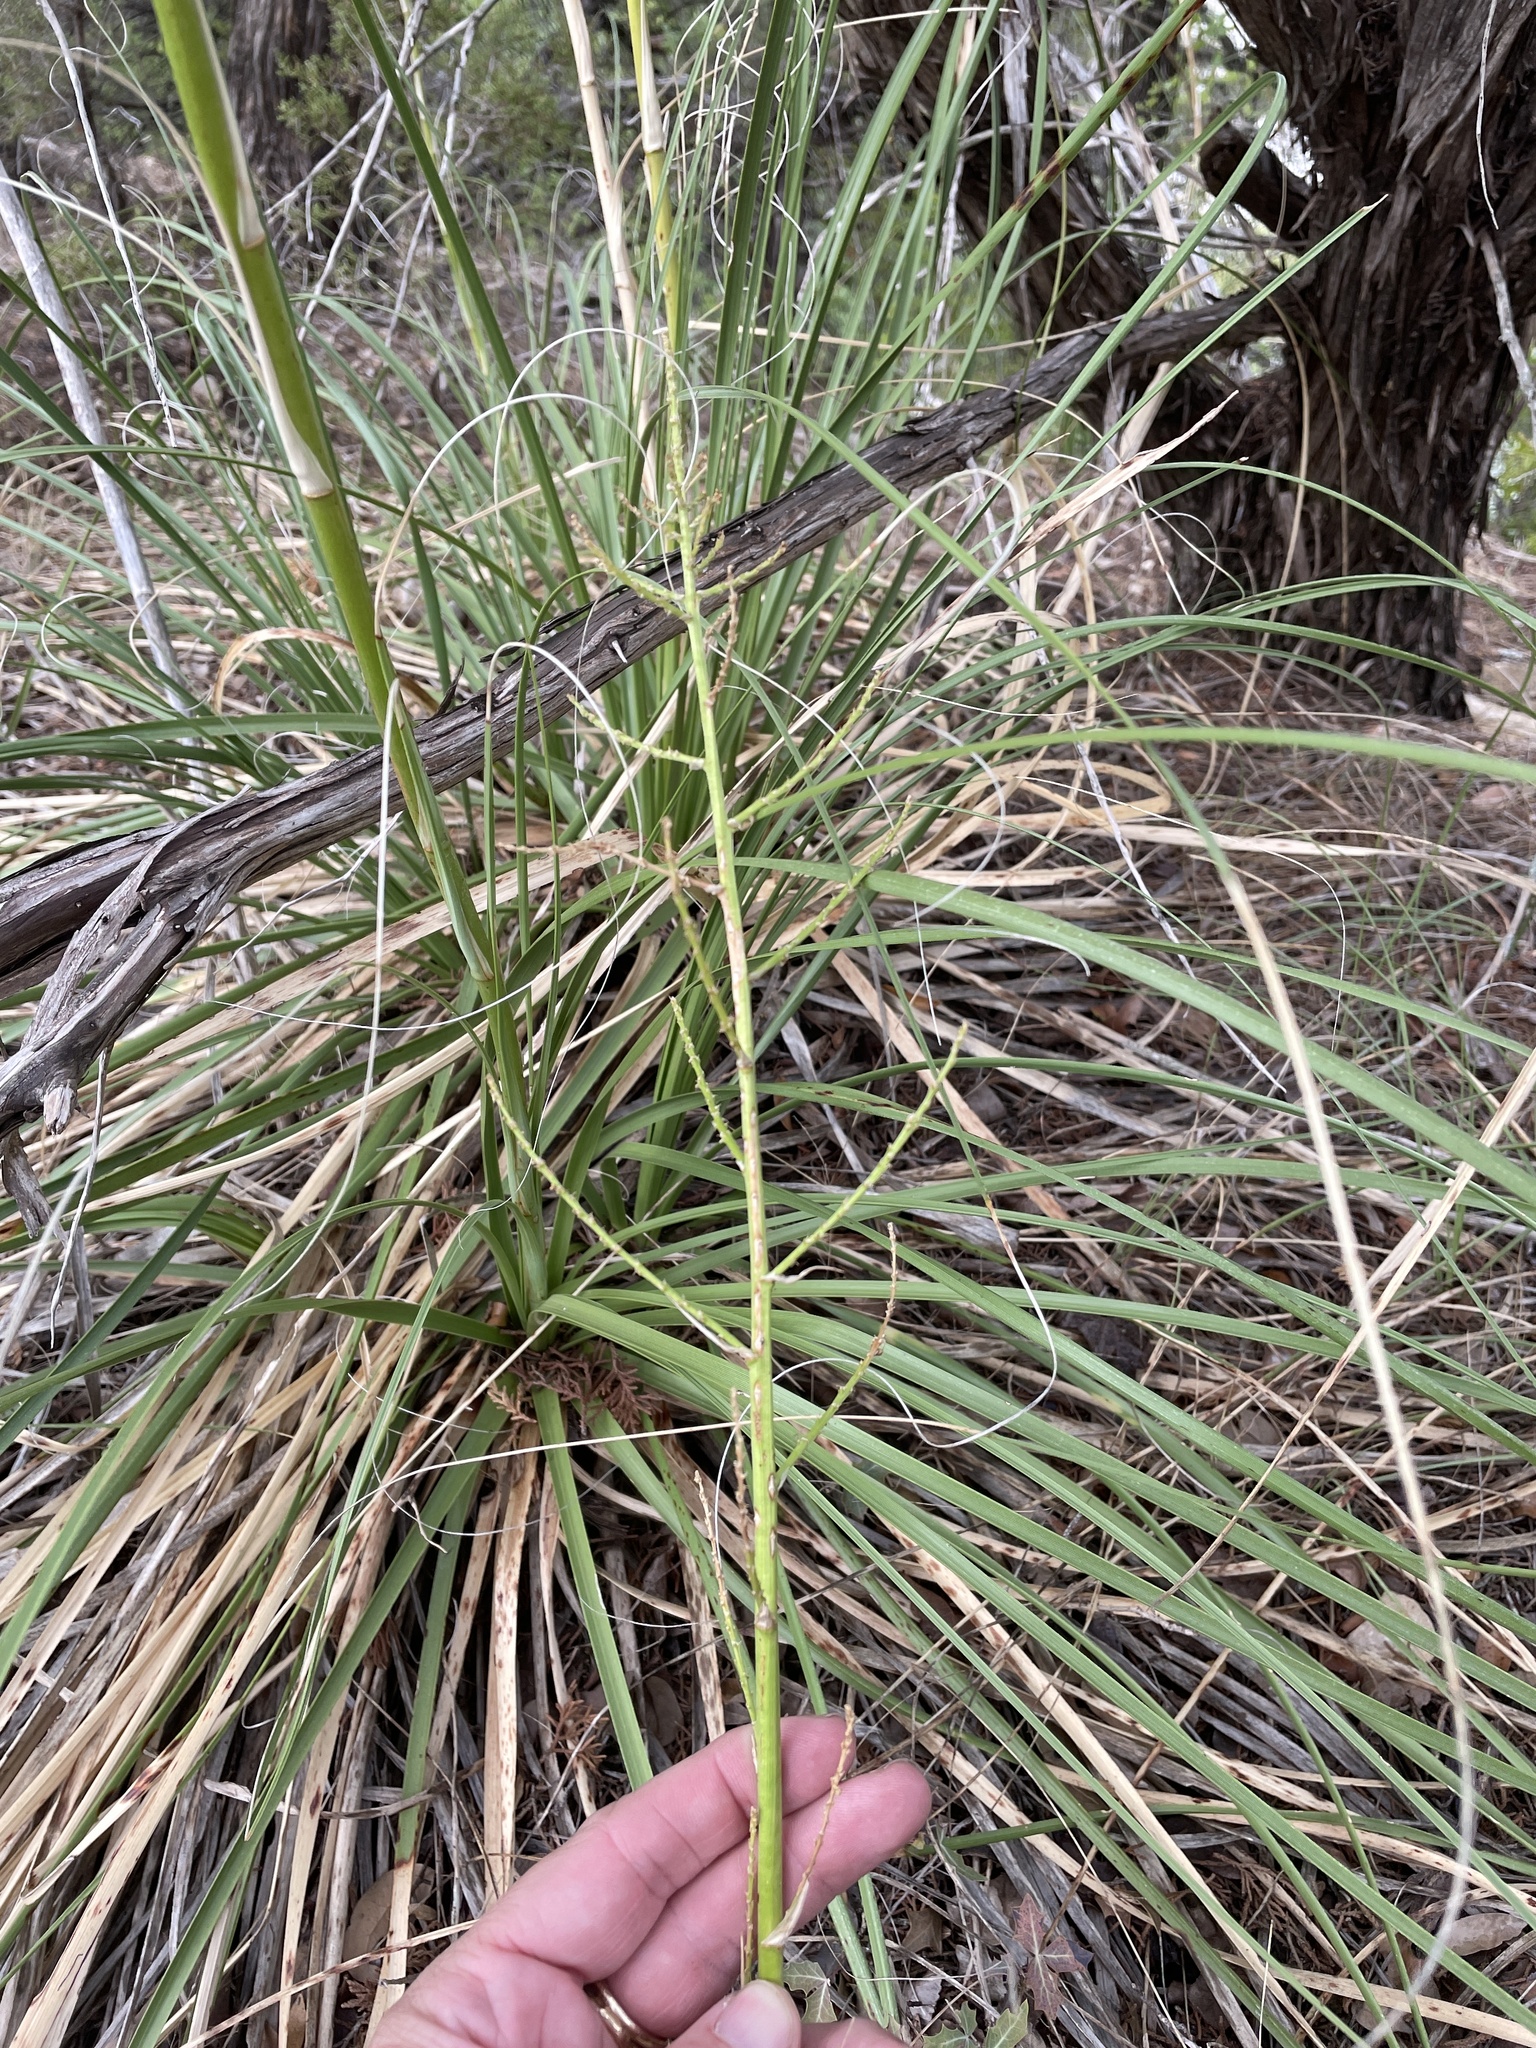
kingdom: Plantae
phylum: Tracheophyta
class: Liliopsida
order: Asparagales
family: Asparagaceae
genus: Nolina
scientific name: Nolina lindheimeriana
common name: Lindheimer's bear-grass
